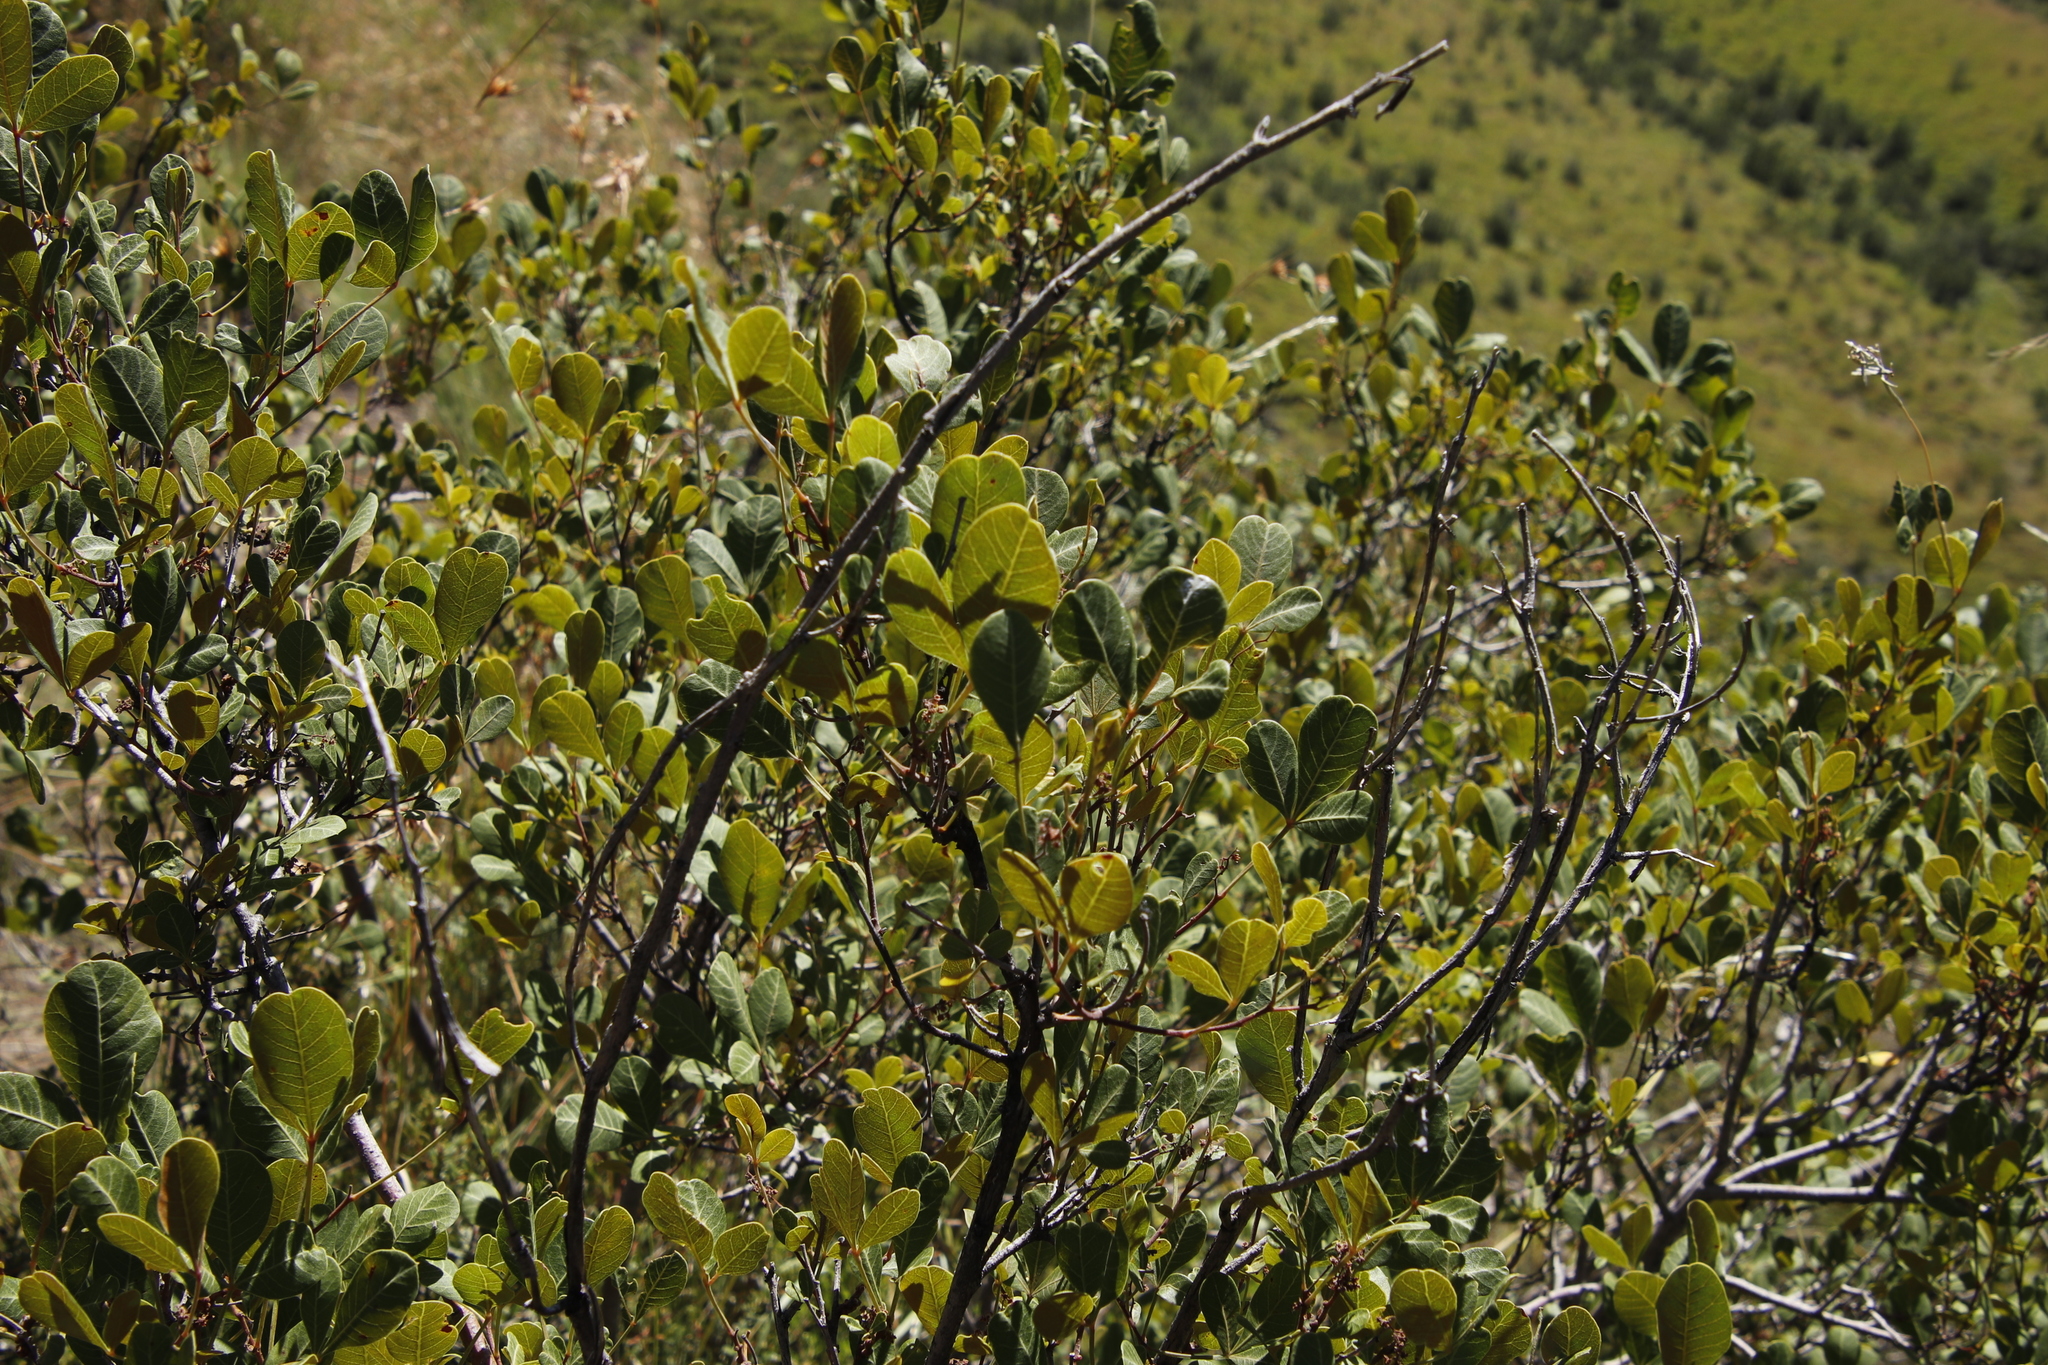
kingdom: Plantae
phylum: Tracheophyta
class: Magnoliopsida
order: Sapindales
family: Anacardiaceae
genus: Searsia
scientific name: Searsia divaricata
